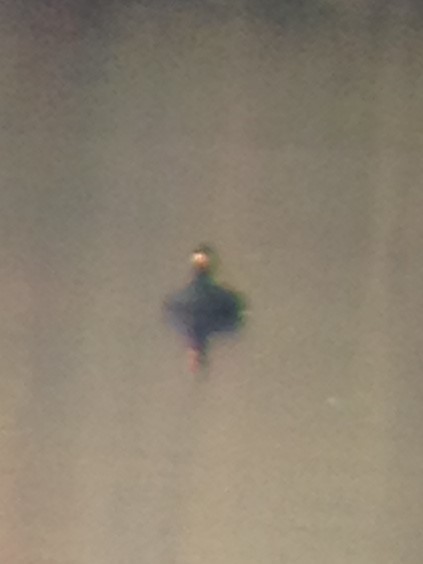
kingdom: Animalia
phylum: Chordata
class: Aves
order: Anseriformes
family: Anatidae
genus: Melanitta
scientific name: Melanitta americana
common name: Black scoter
